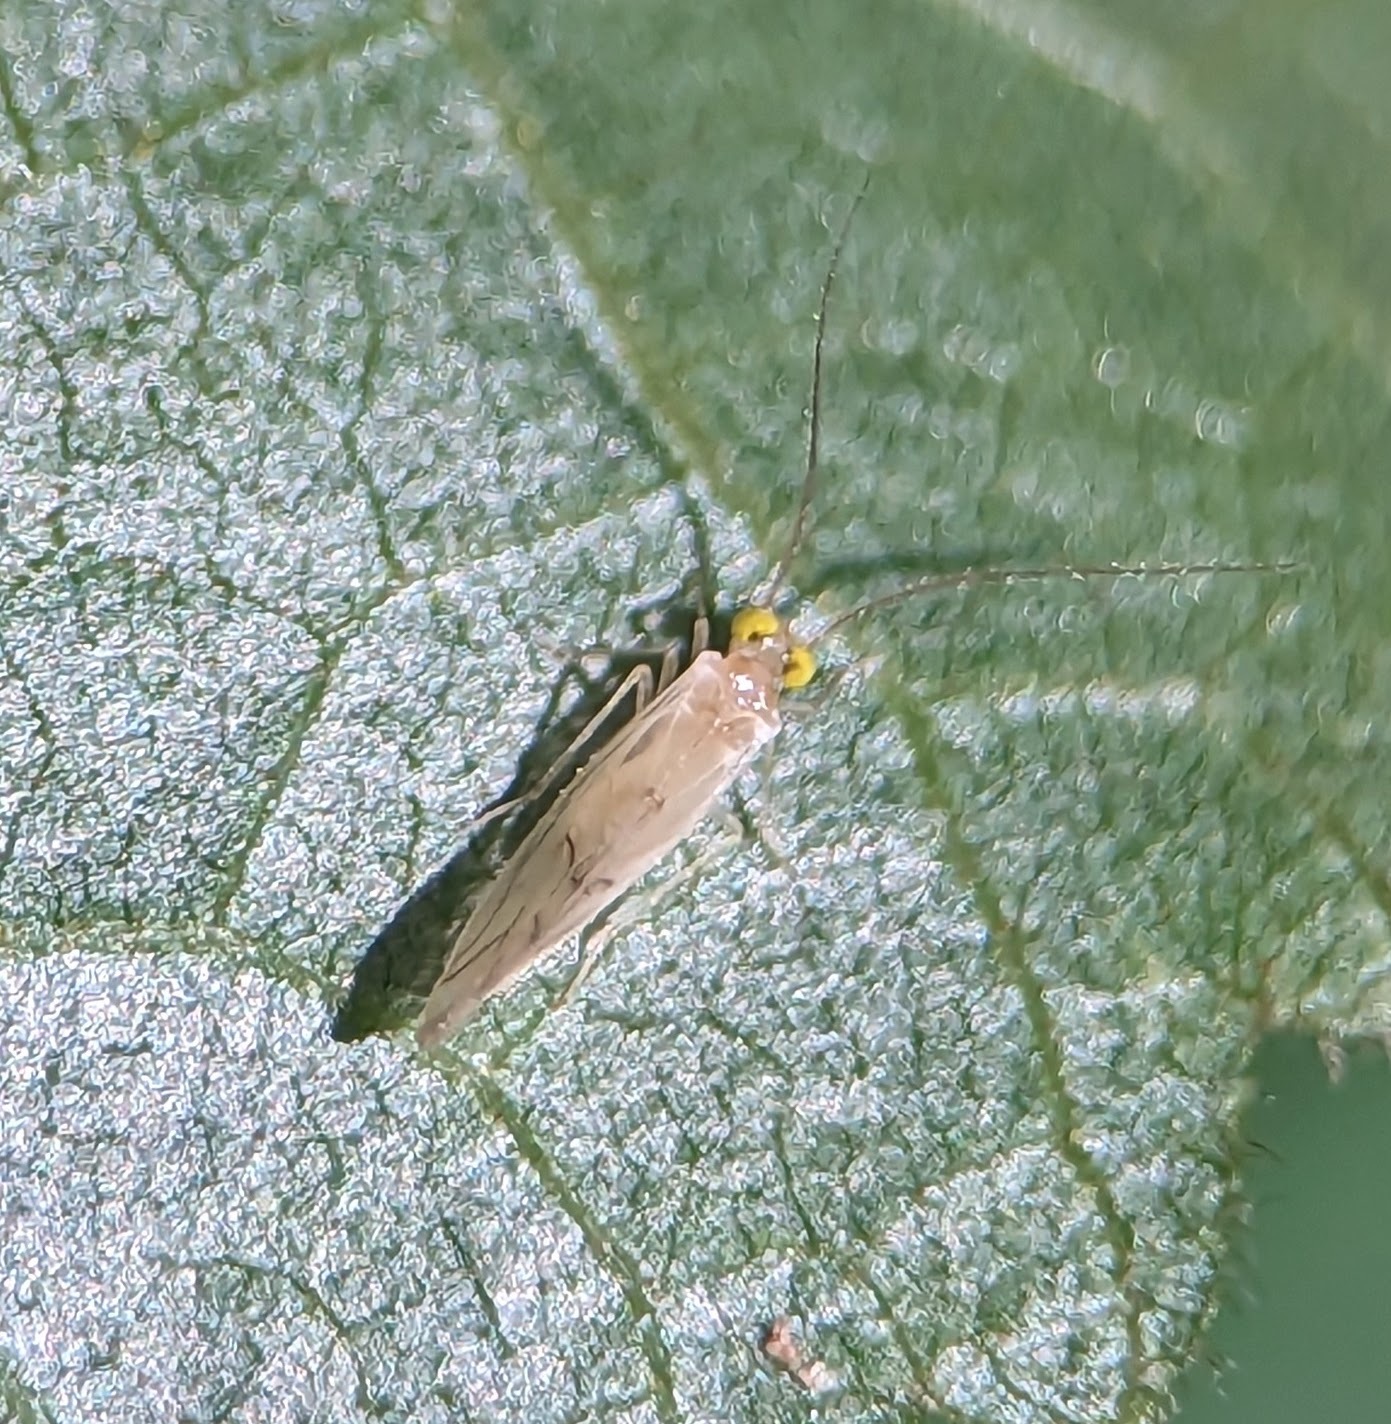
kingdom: Animalia
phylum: Arthropoda
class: Insecta
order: Psocodea
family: Paracaeciliidae
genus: Xanthocaecilius
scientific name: Xanthocaecilius sommermanae
